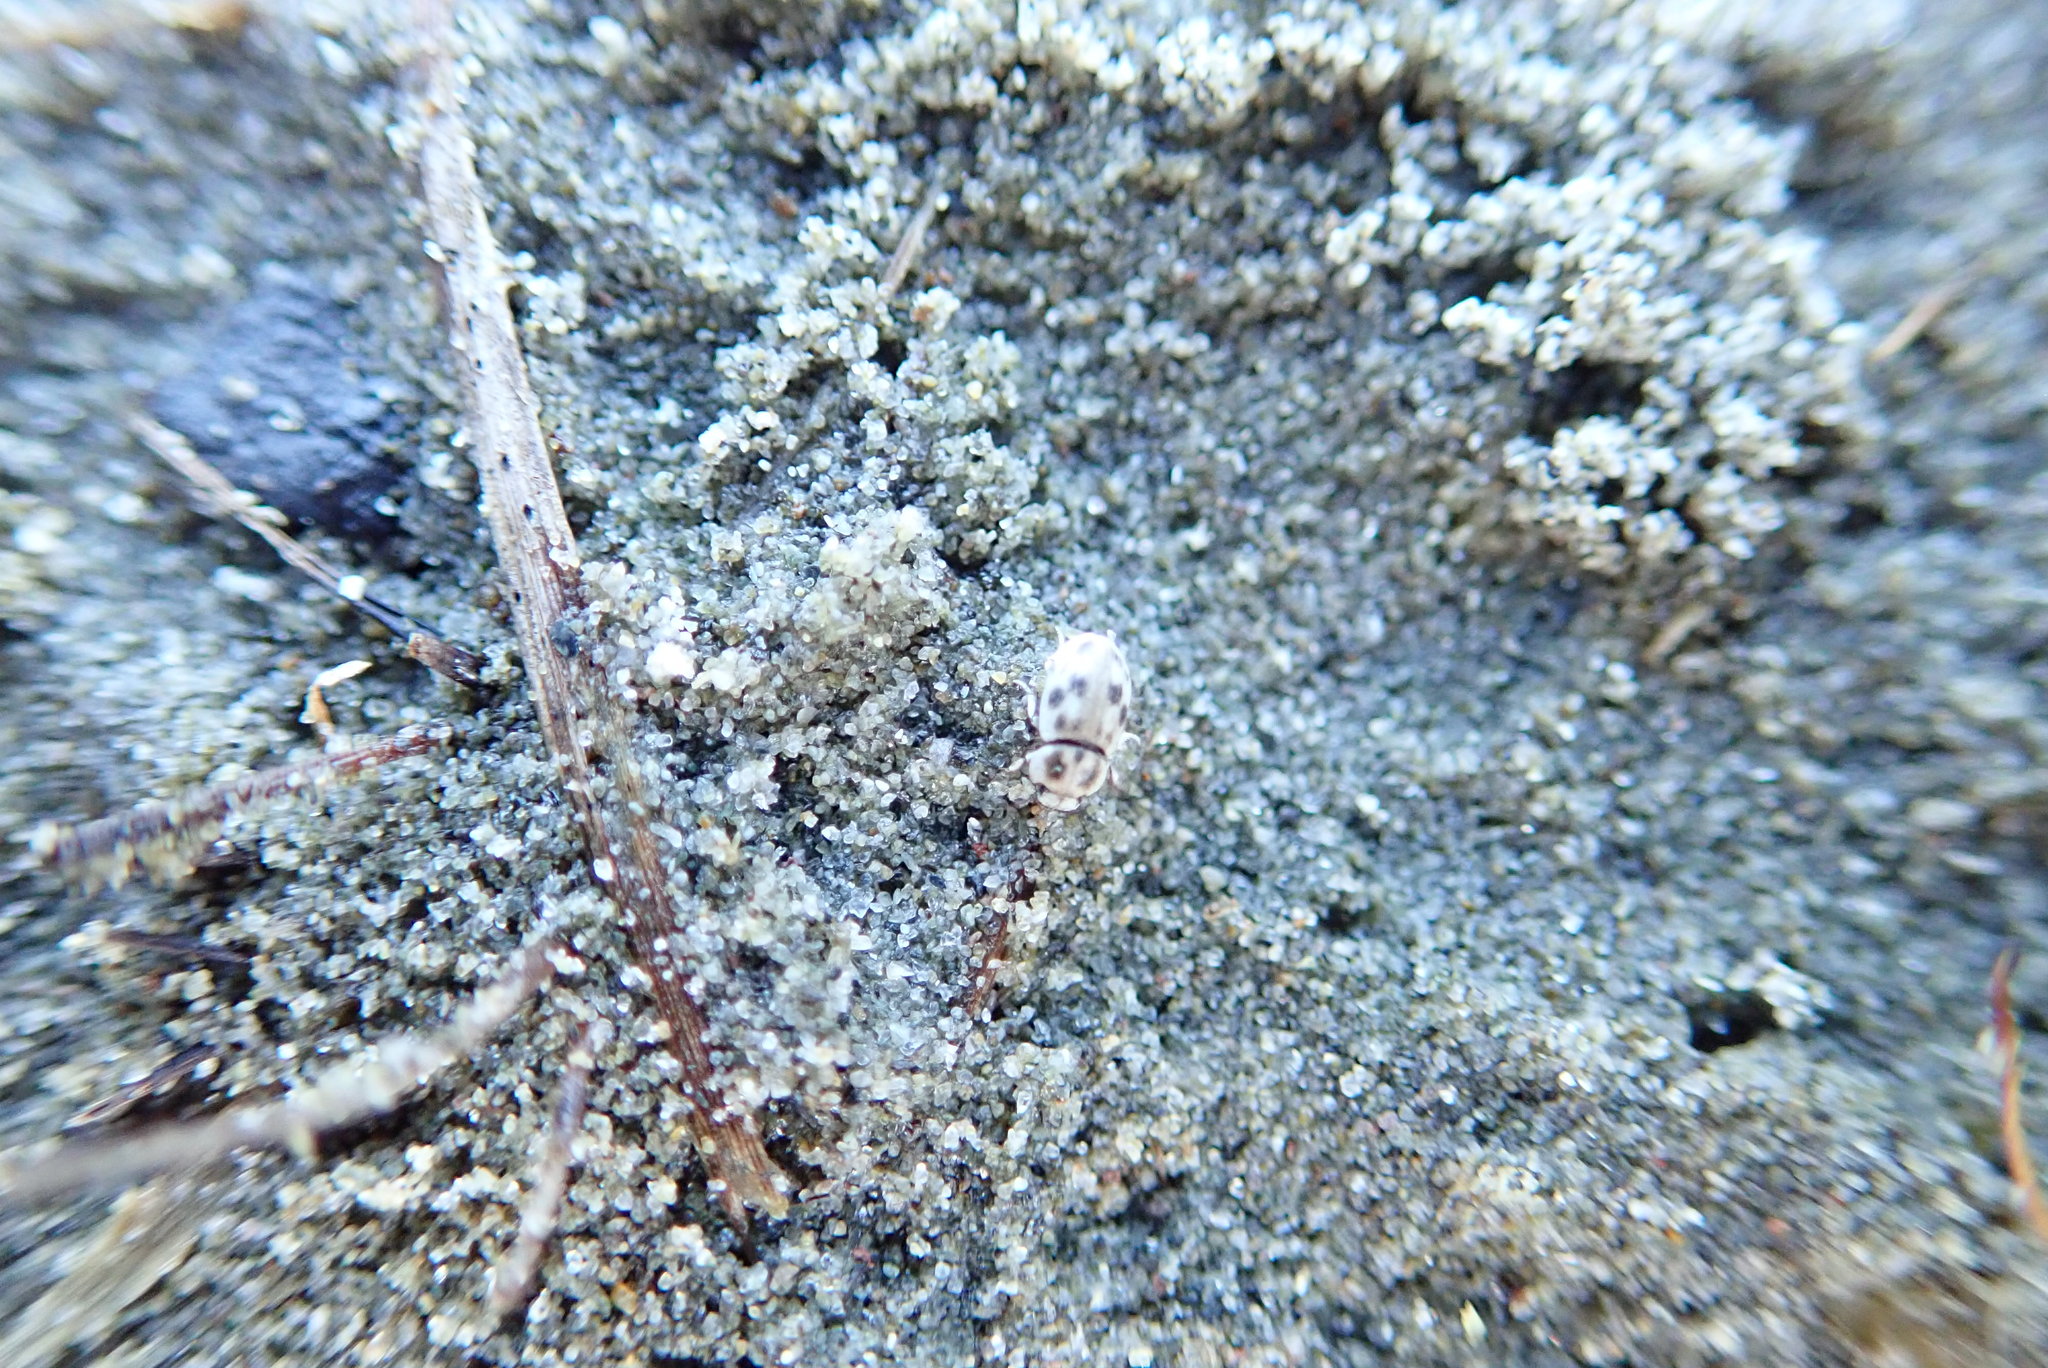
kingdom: Animalia
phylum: Arthropoda
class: Insecta
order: Coleoptera
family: Tenebrionidae
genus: Actizeta
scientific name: Actizeta
